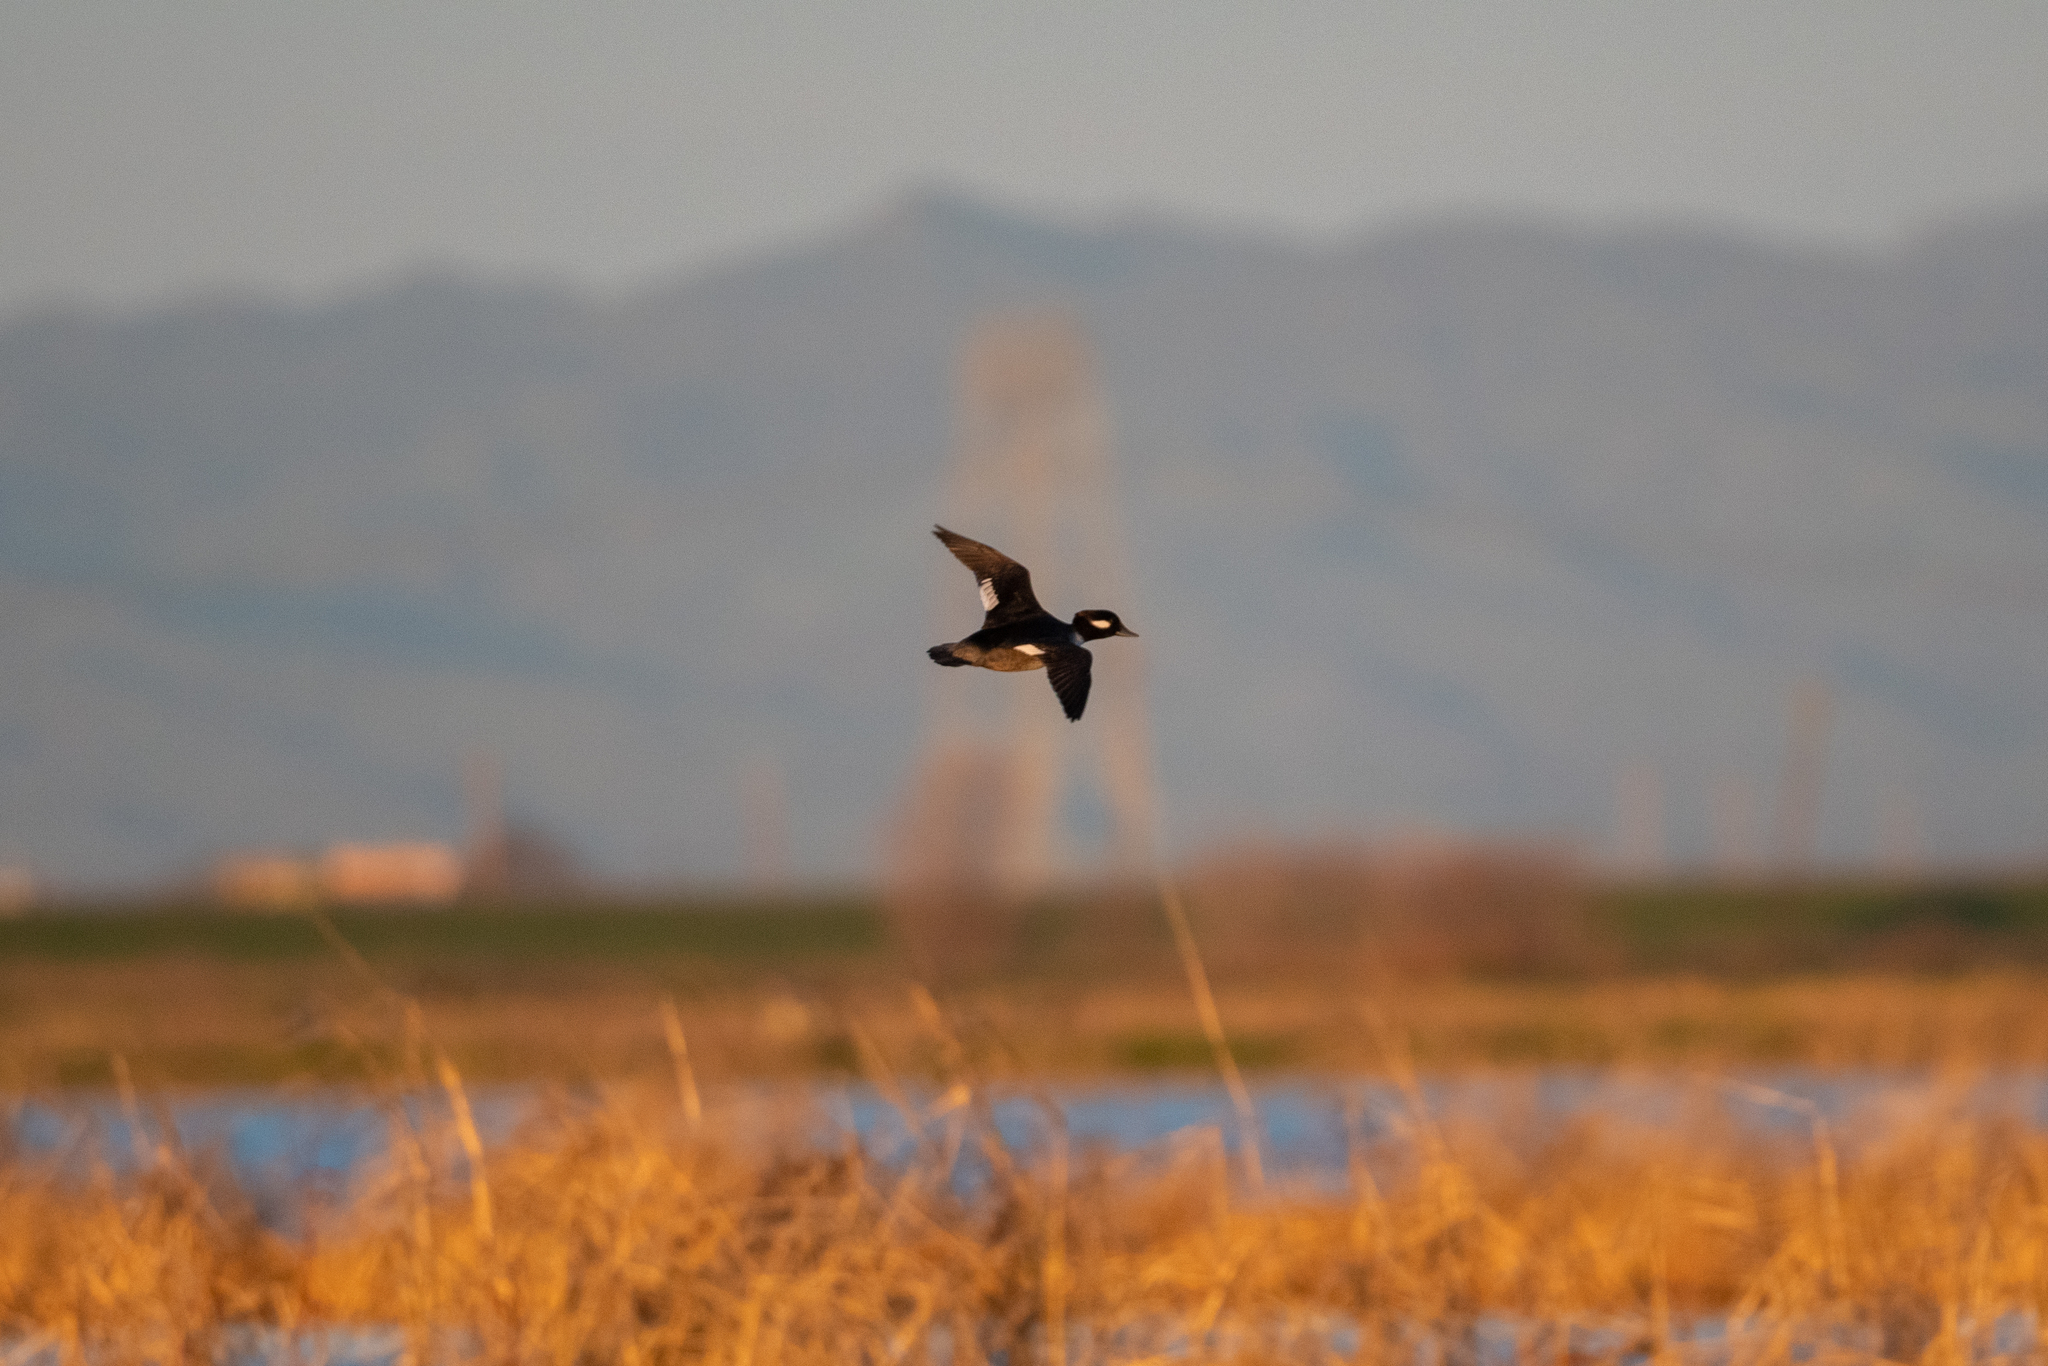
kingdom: Animalia
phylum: Chordata
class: Aves
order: Anseriformes
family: Anatidae
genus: Bucephala
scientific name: Bucephala albeola
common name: Bufflehead
